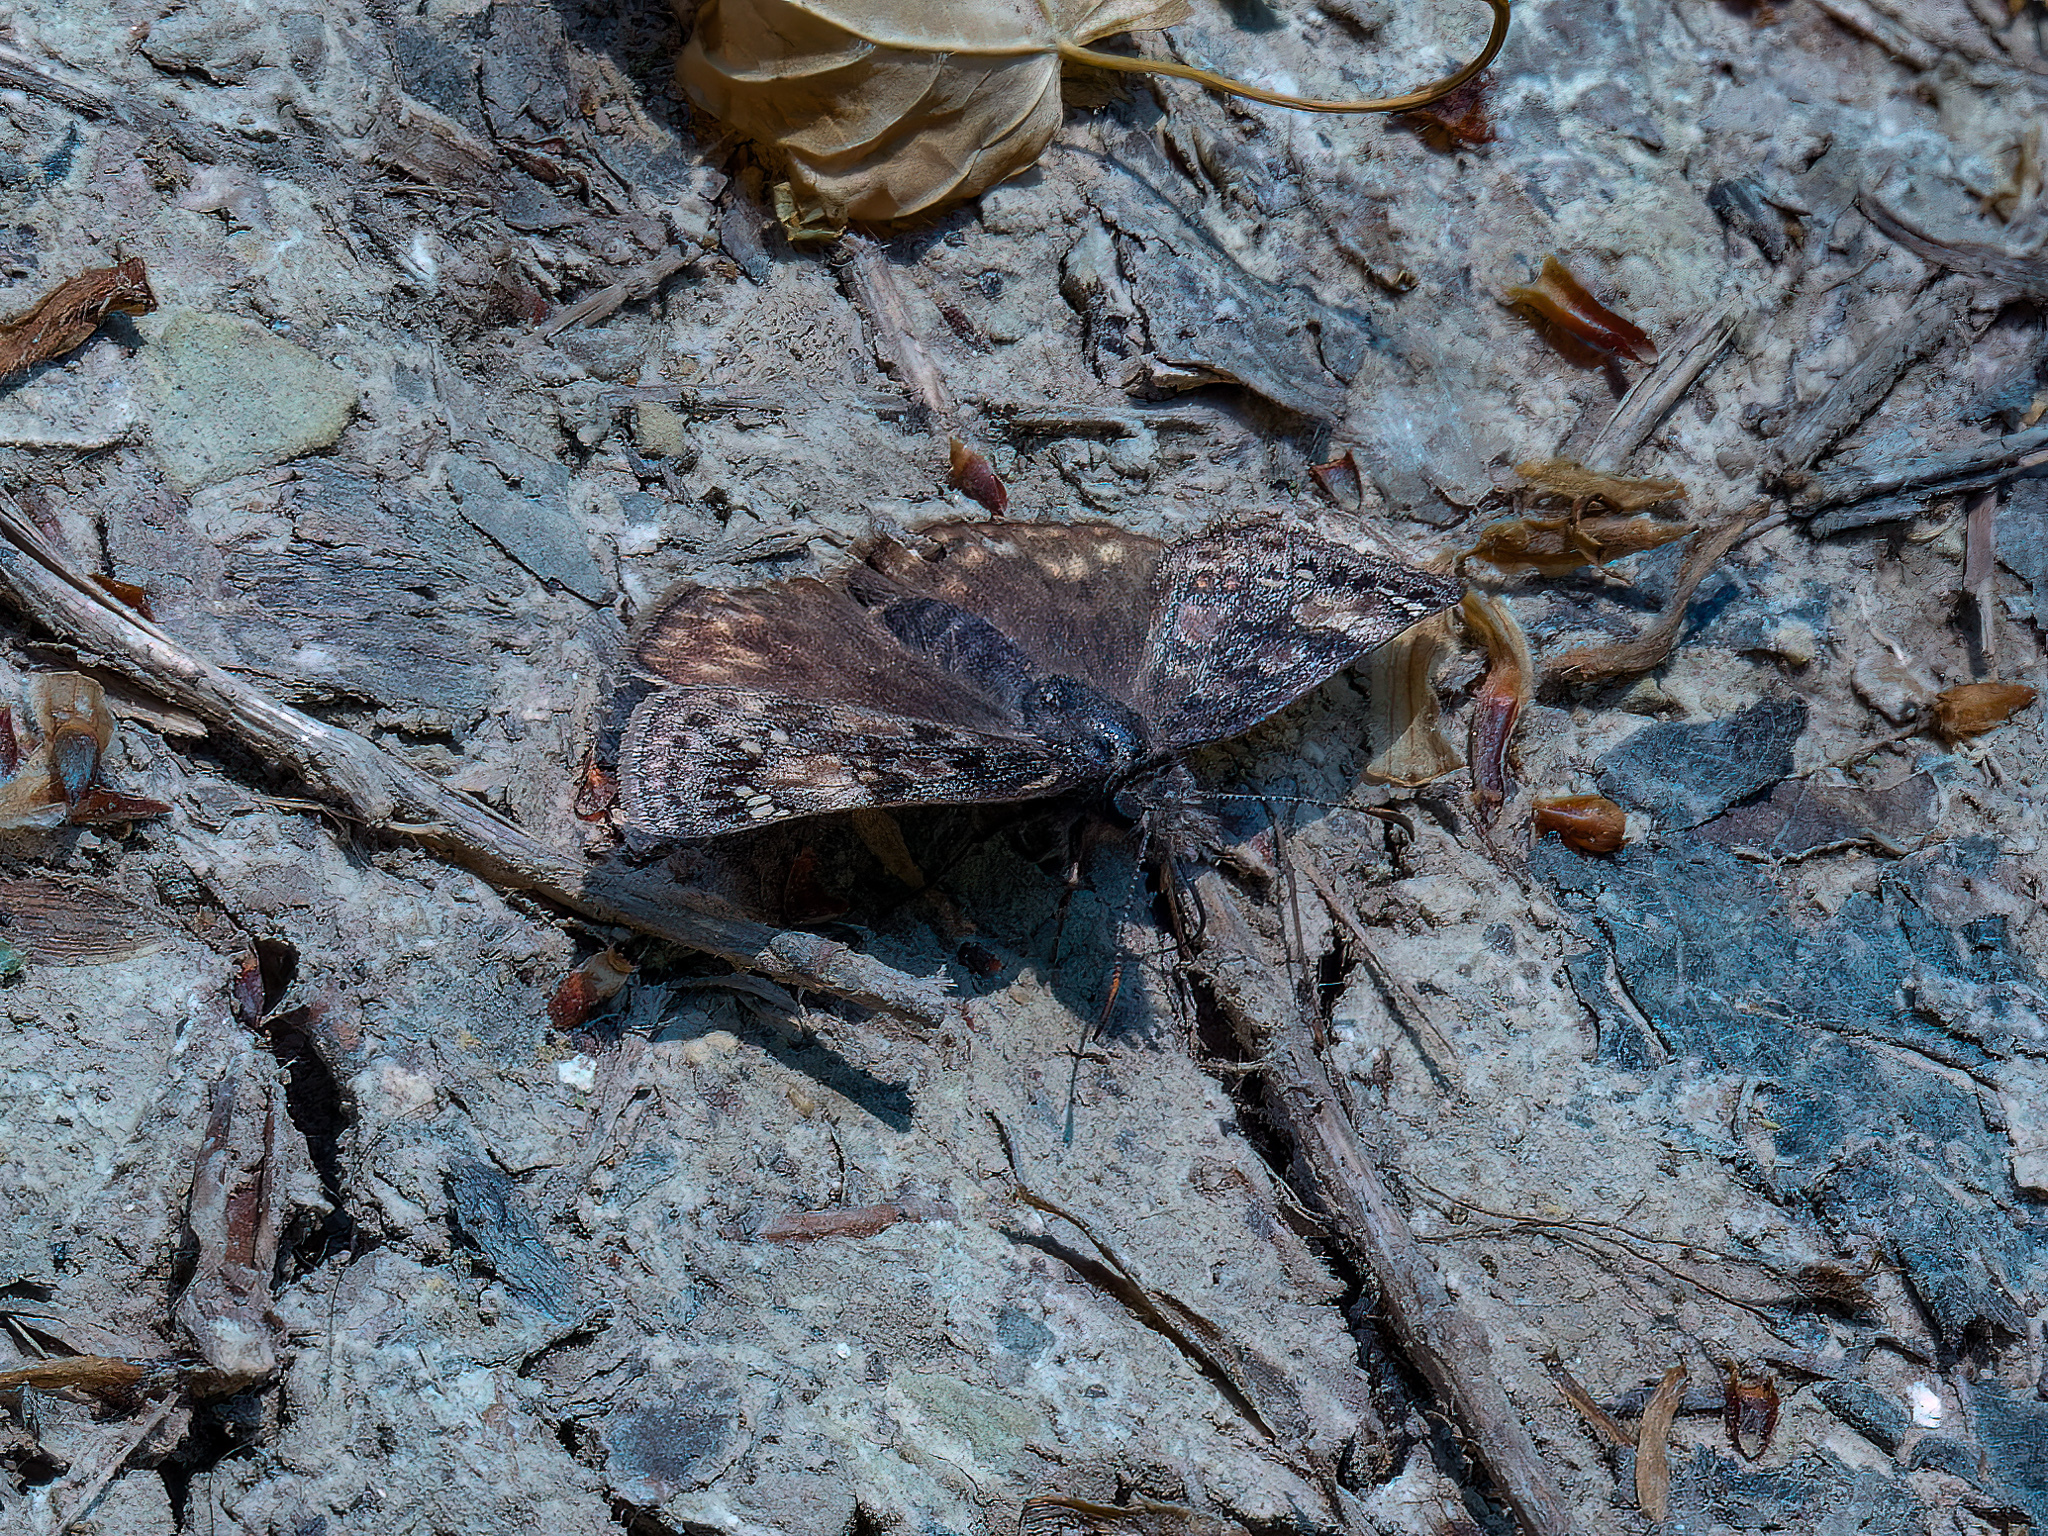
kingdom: Animalia
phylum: Arthropoda
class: Insecta
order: Lepidoptera
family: Hesperiidae
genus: Erynnis
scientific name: Erynnis juvenalis
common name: Juvenal's duskywing
